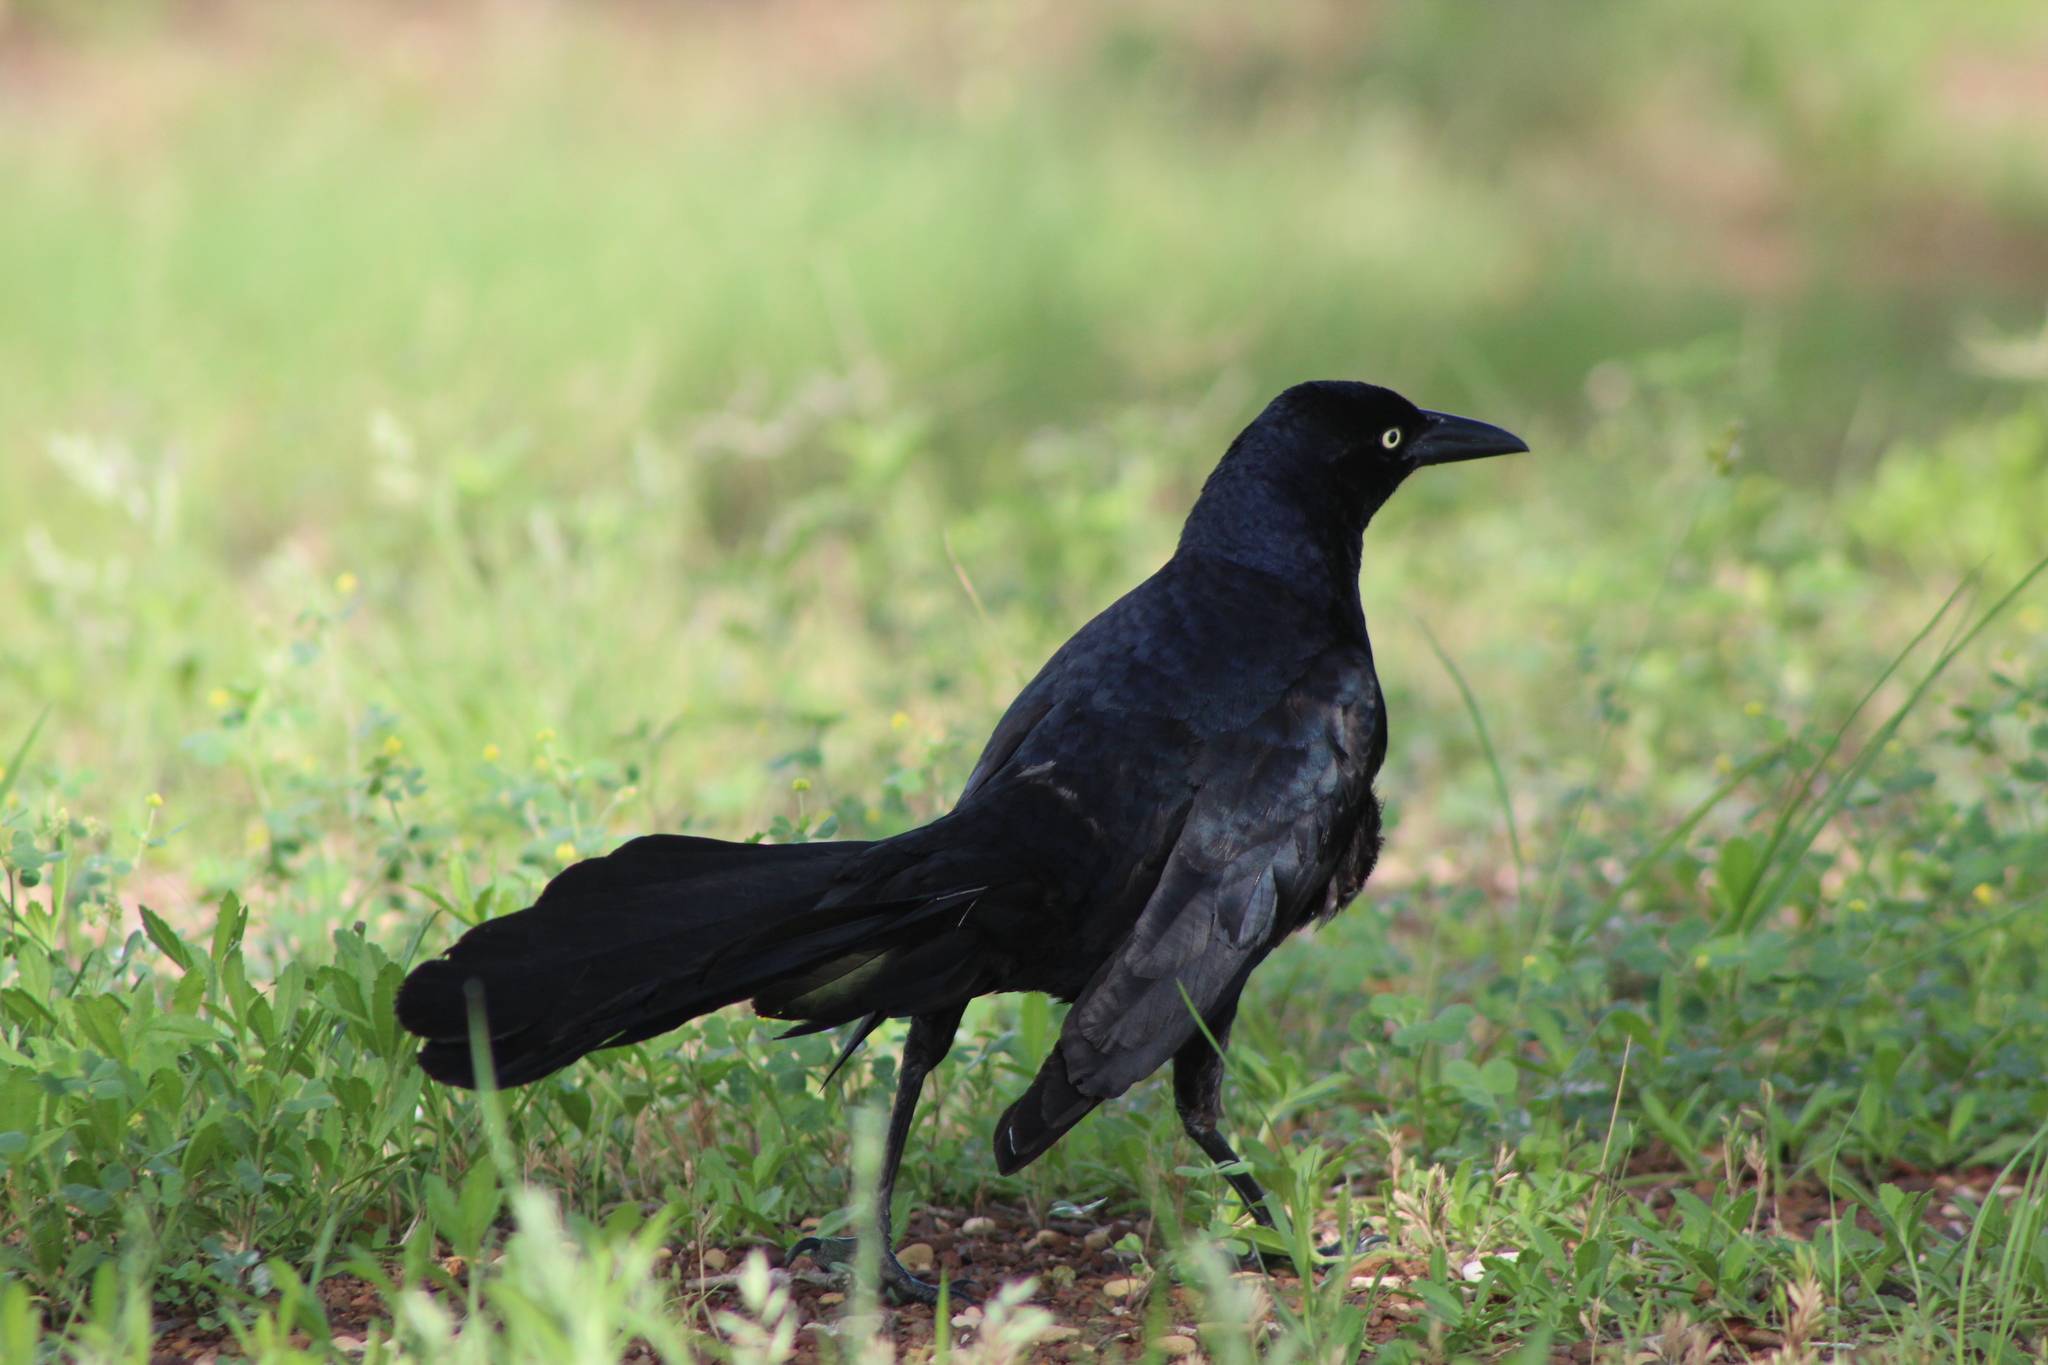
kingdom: Animalia
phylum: Chordata
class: Aves
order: Passeriformes
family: Icteridae
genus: Quiscalus
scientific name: Quiscalus mexicanus
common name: Great-tailed grackle
